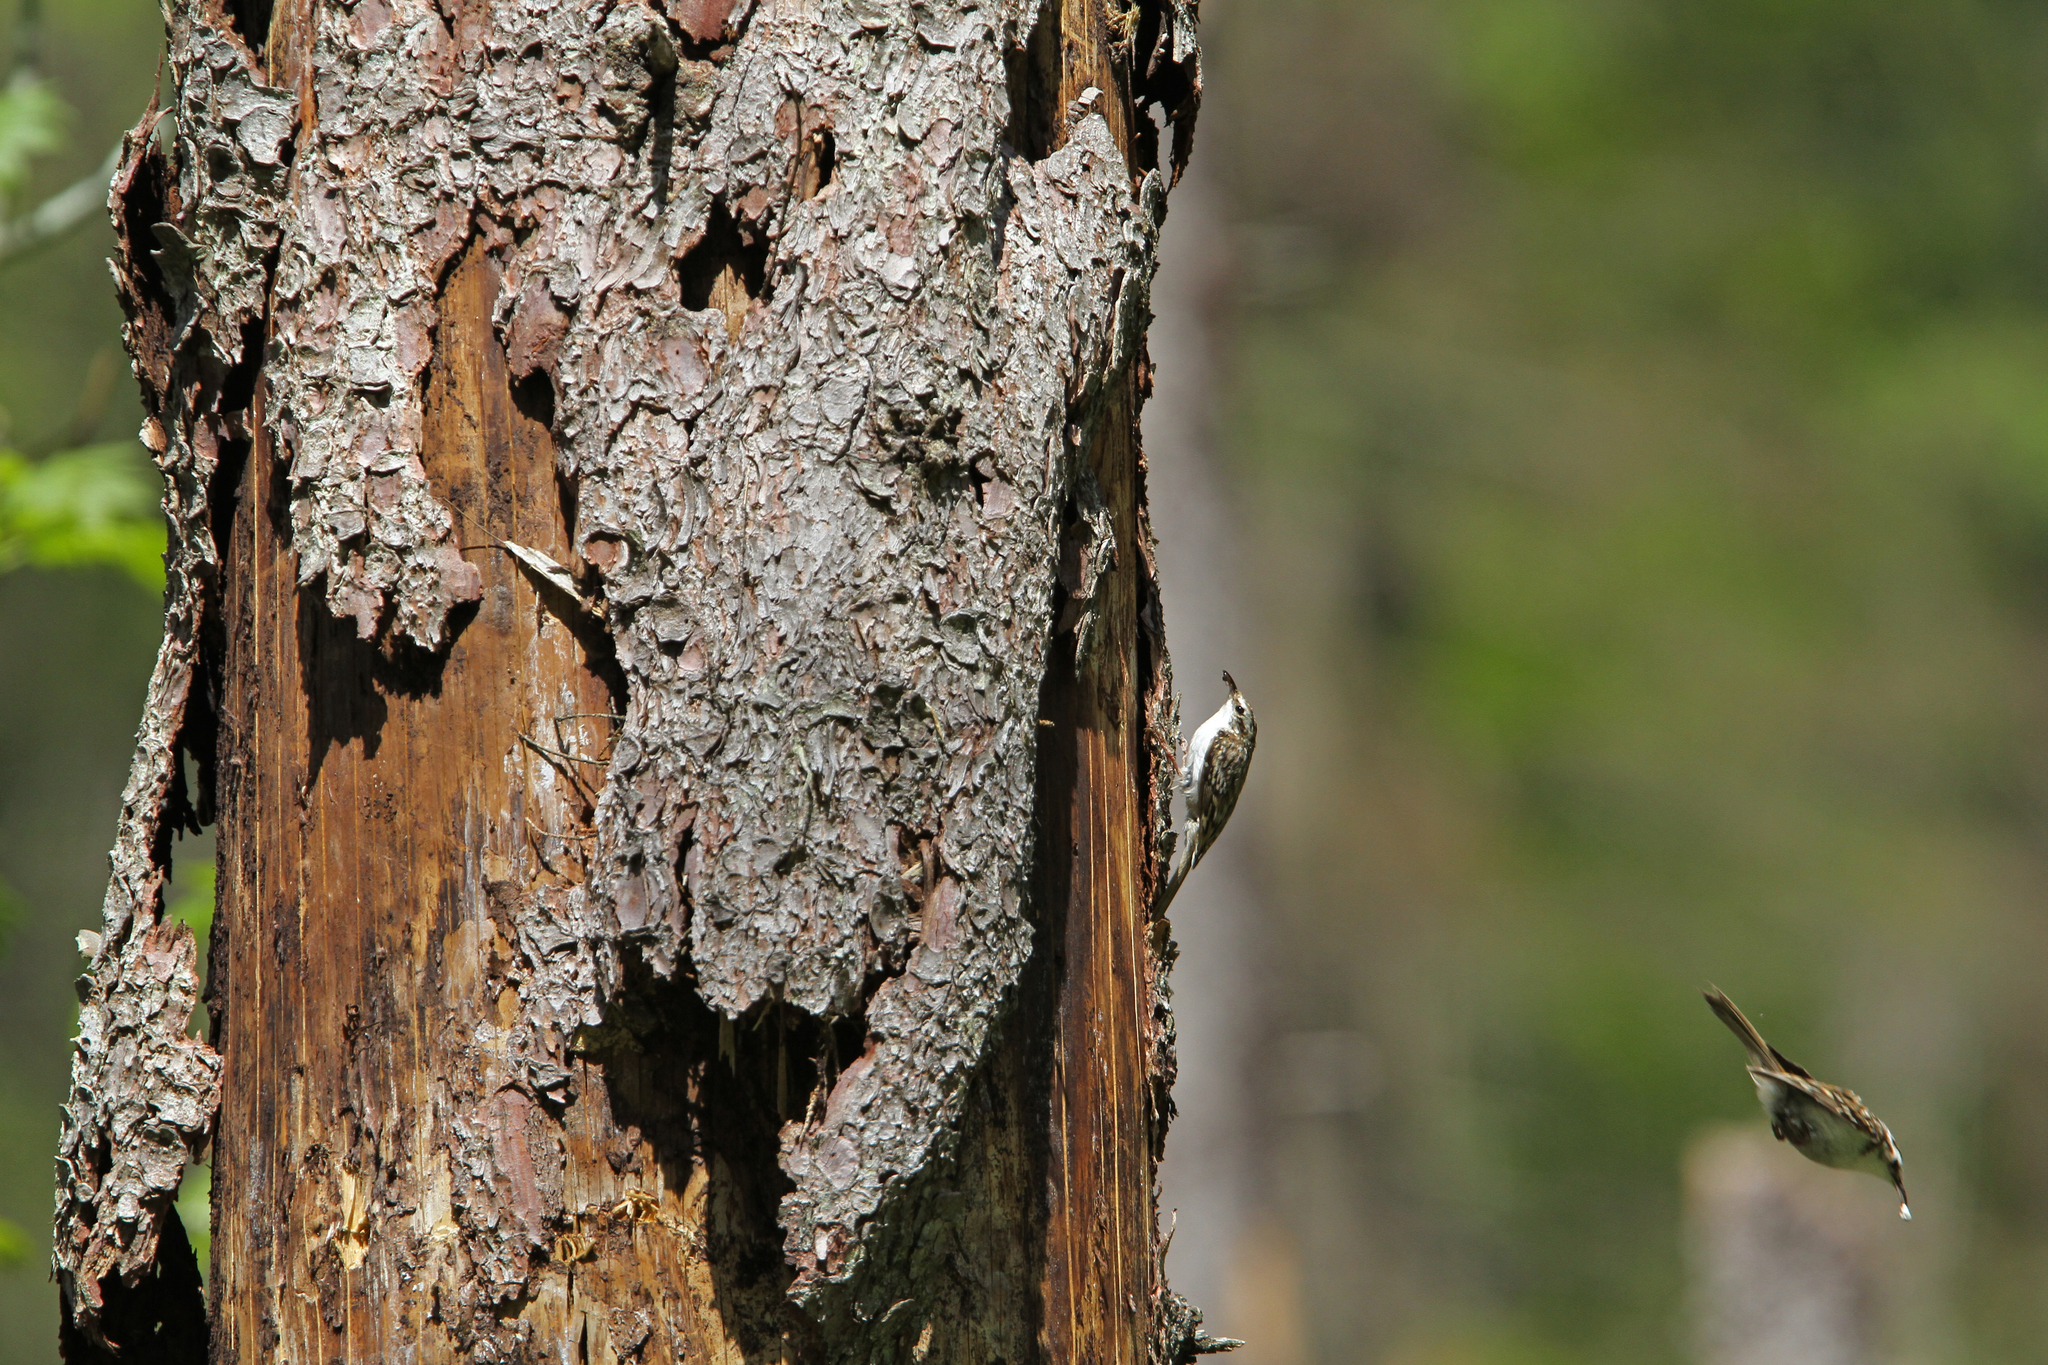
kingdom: Animalia
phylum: Chordata
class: Aves
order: Passeriformes
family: Certhiidae
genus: Certhia
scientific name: Certhia familiaris
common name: Eurasian treecreeper
